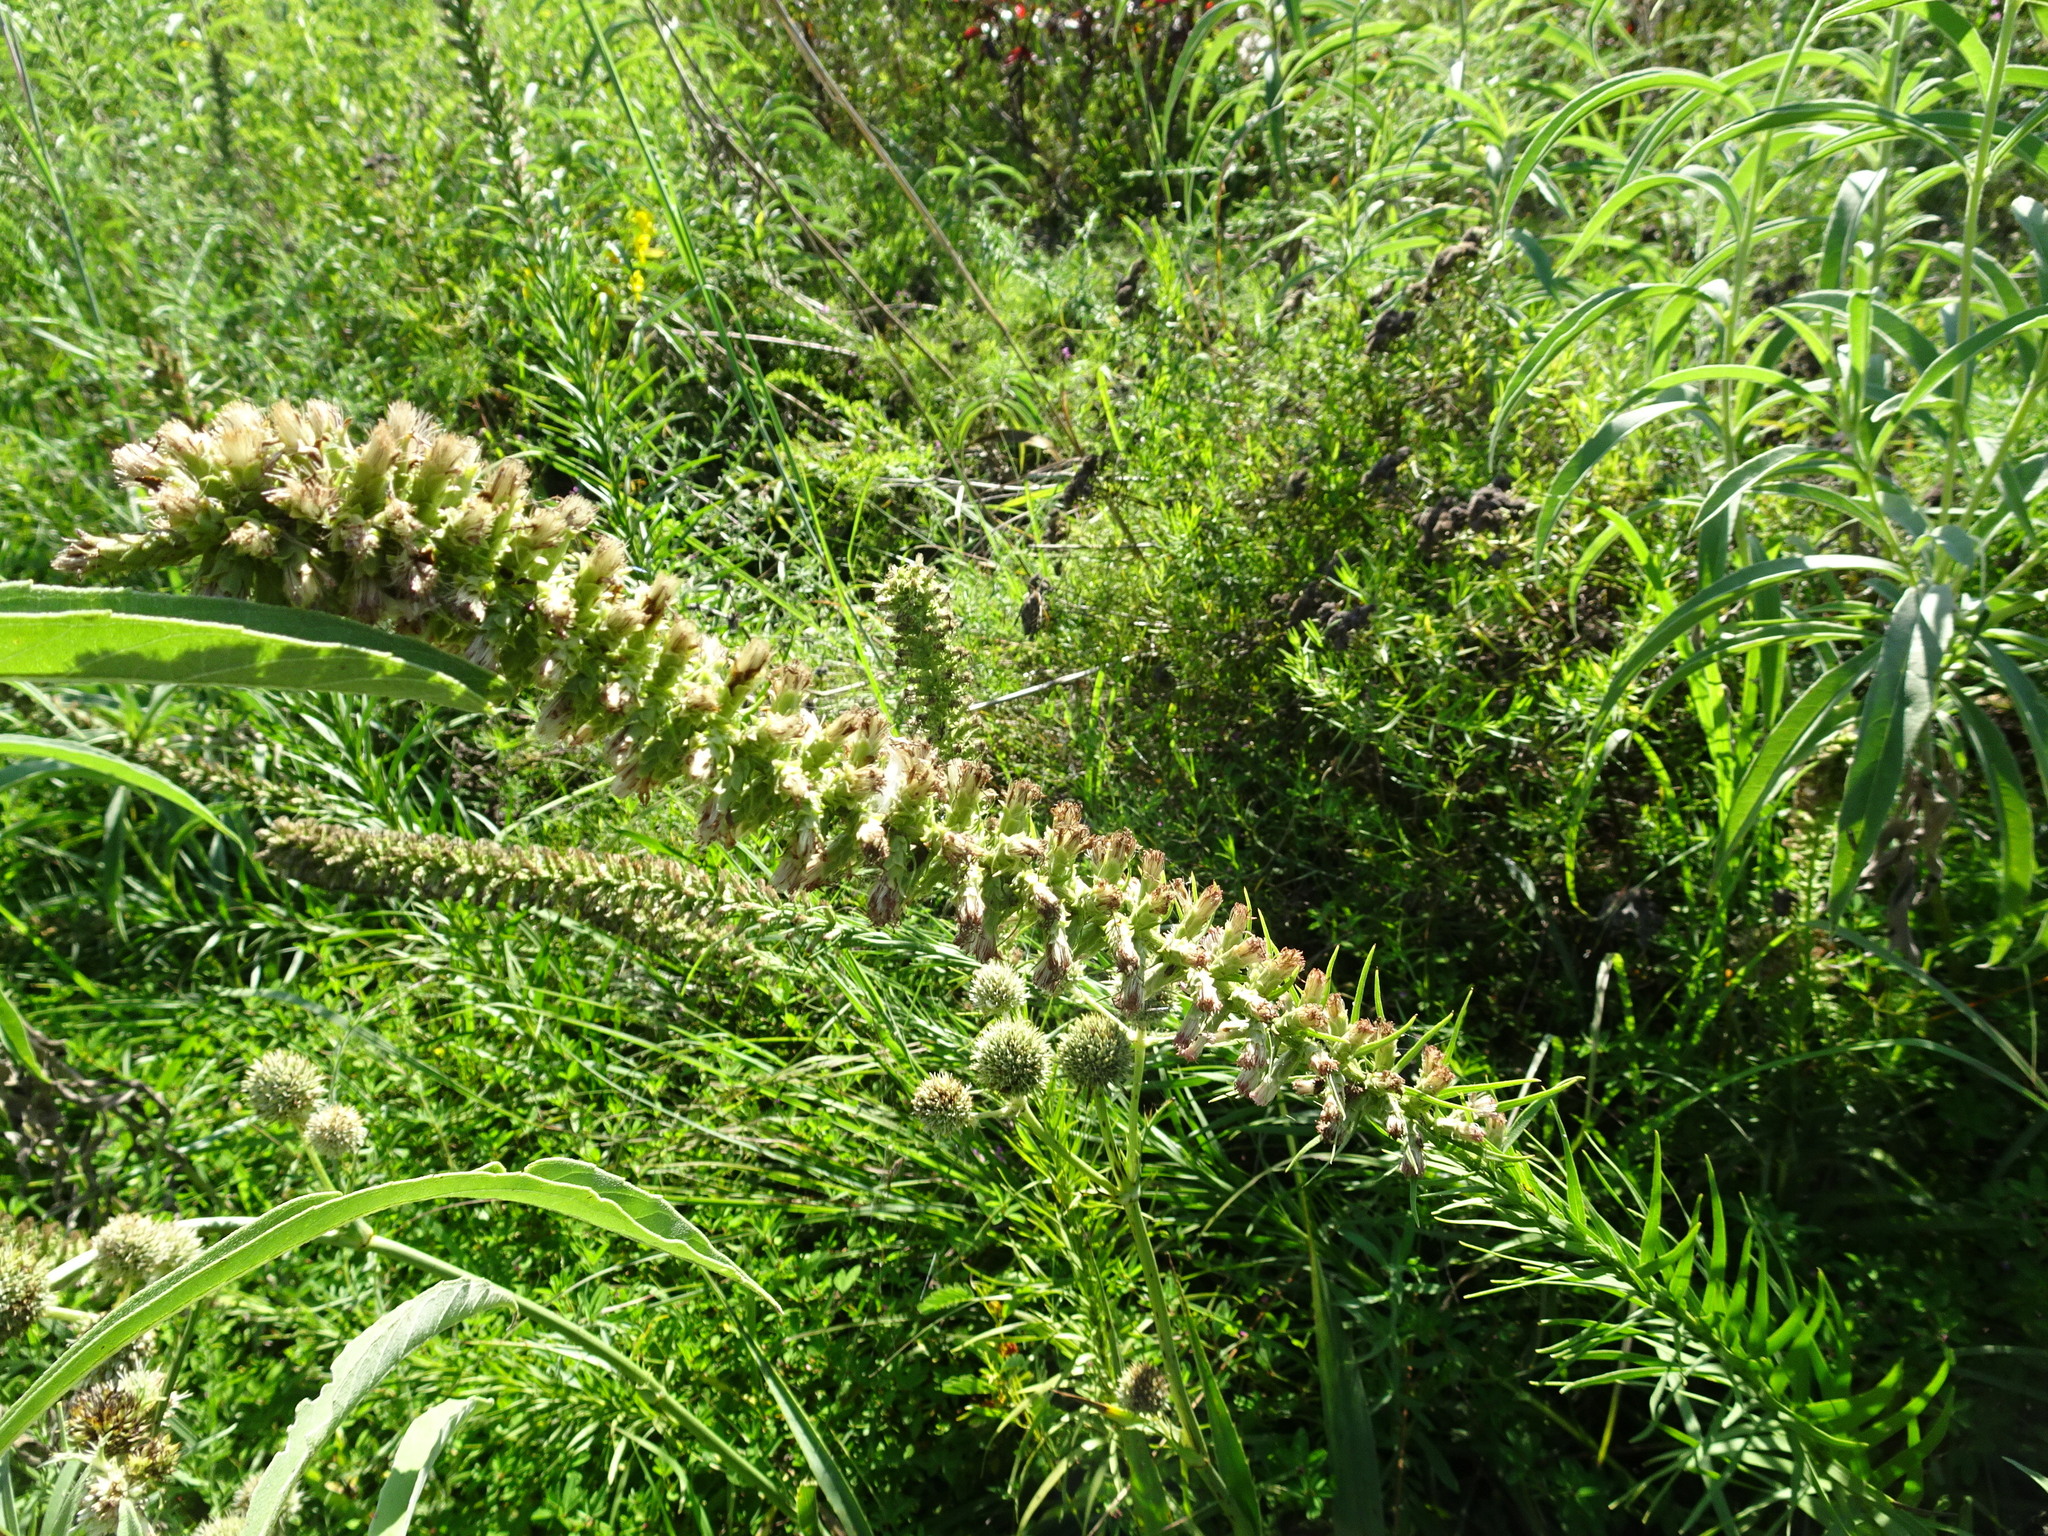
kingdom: Plantae
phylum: Tracheophyta
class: Magnoliopsida
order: Asterales
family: Asteraceae
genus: Liatris
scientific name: Liatris pycnostachya
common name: Cattail gayfeather
